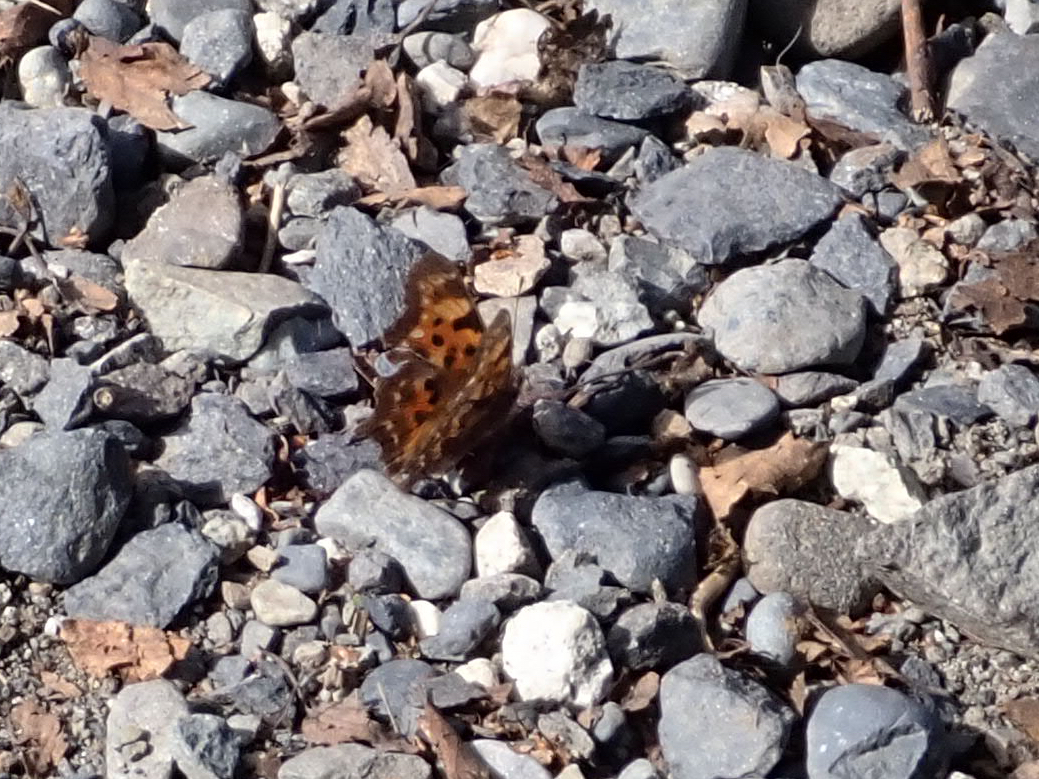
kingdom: Animalia
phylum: Arthropoda
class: Insecta
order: Lepidoptera
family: Nymphalidae
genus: Polygonia
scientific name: Polygonia faunus
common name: Green comma
